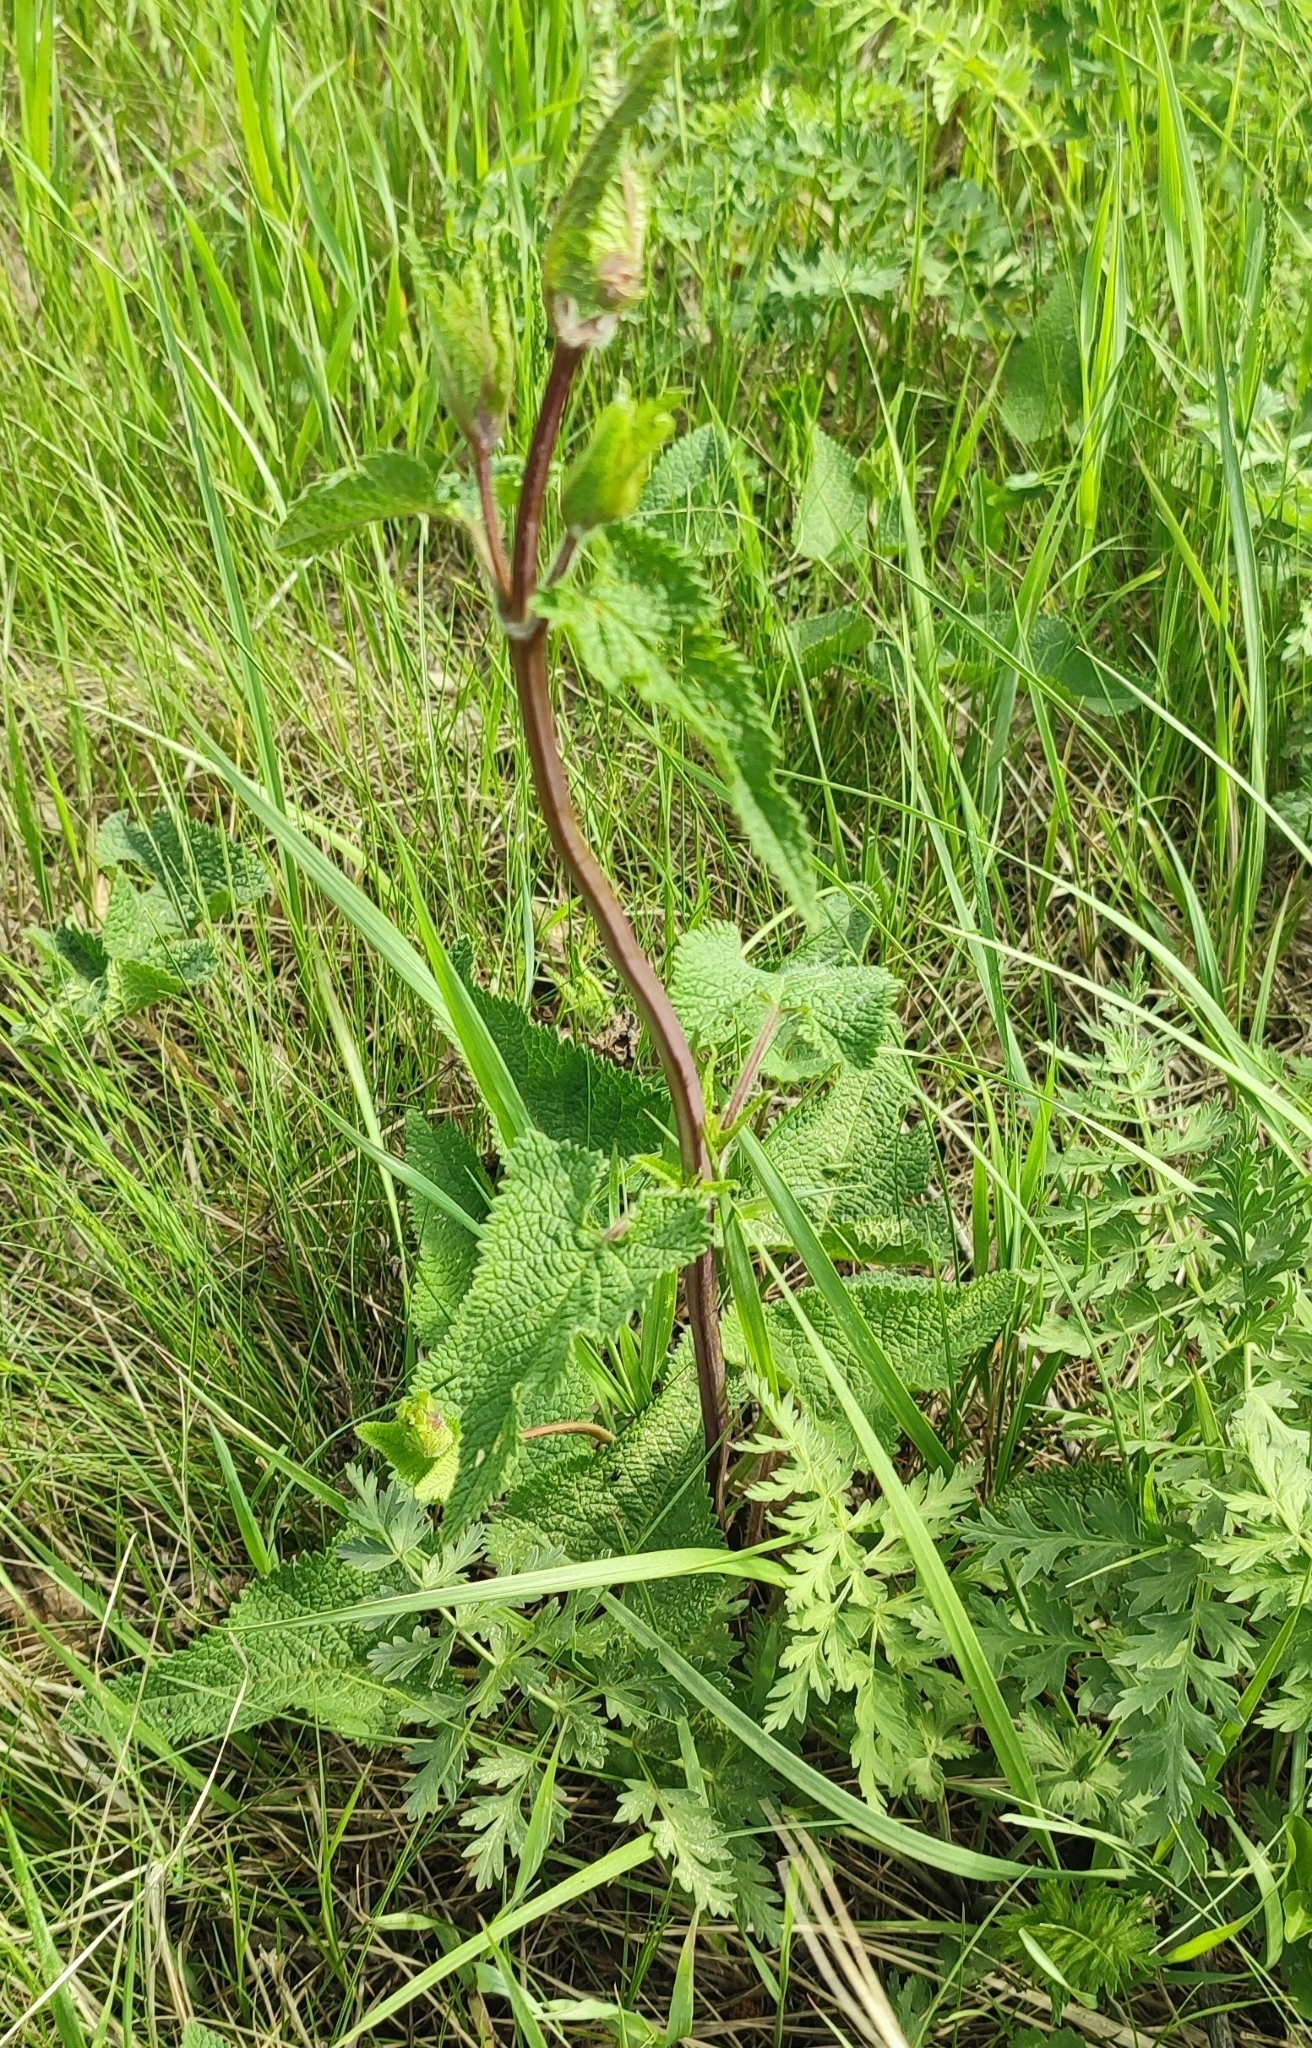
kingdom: Plantae
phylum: Tracheophyta
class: Magnoliopsida
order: Lamiales
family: Lamiaceae
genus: Phlomoides
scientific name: Phlomoides tuberosa
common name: Tuberous jerusalem sage
